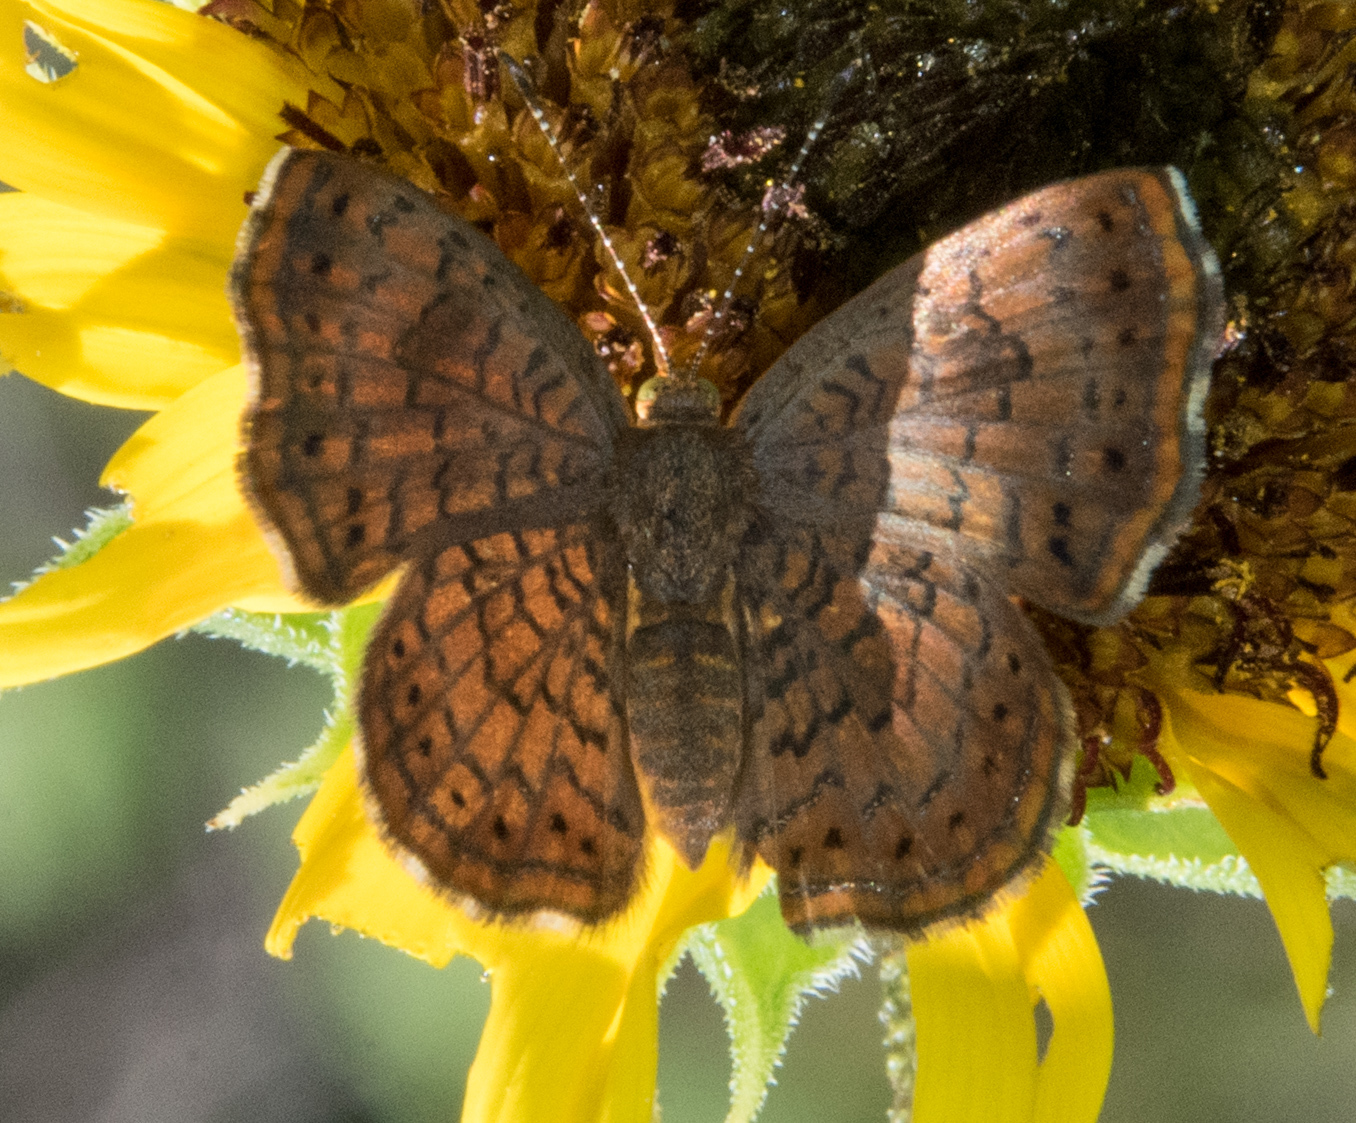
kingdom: Animalia
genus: Calephelis
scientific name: Calephelis nemesis
